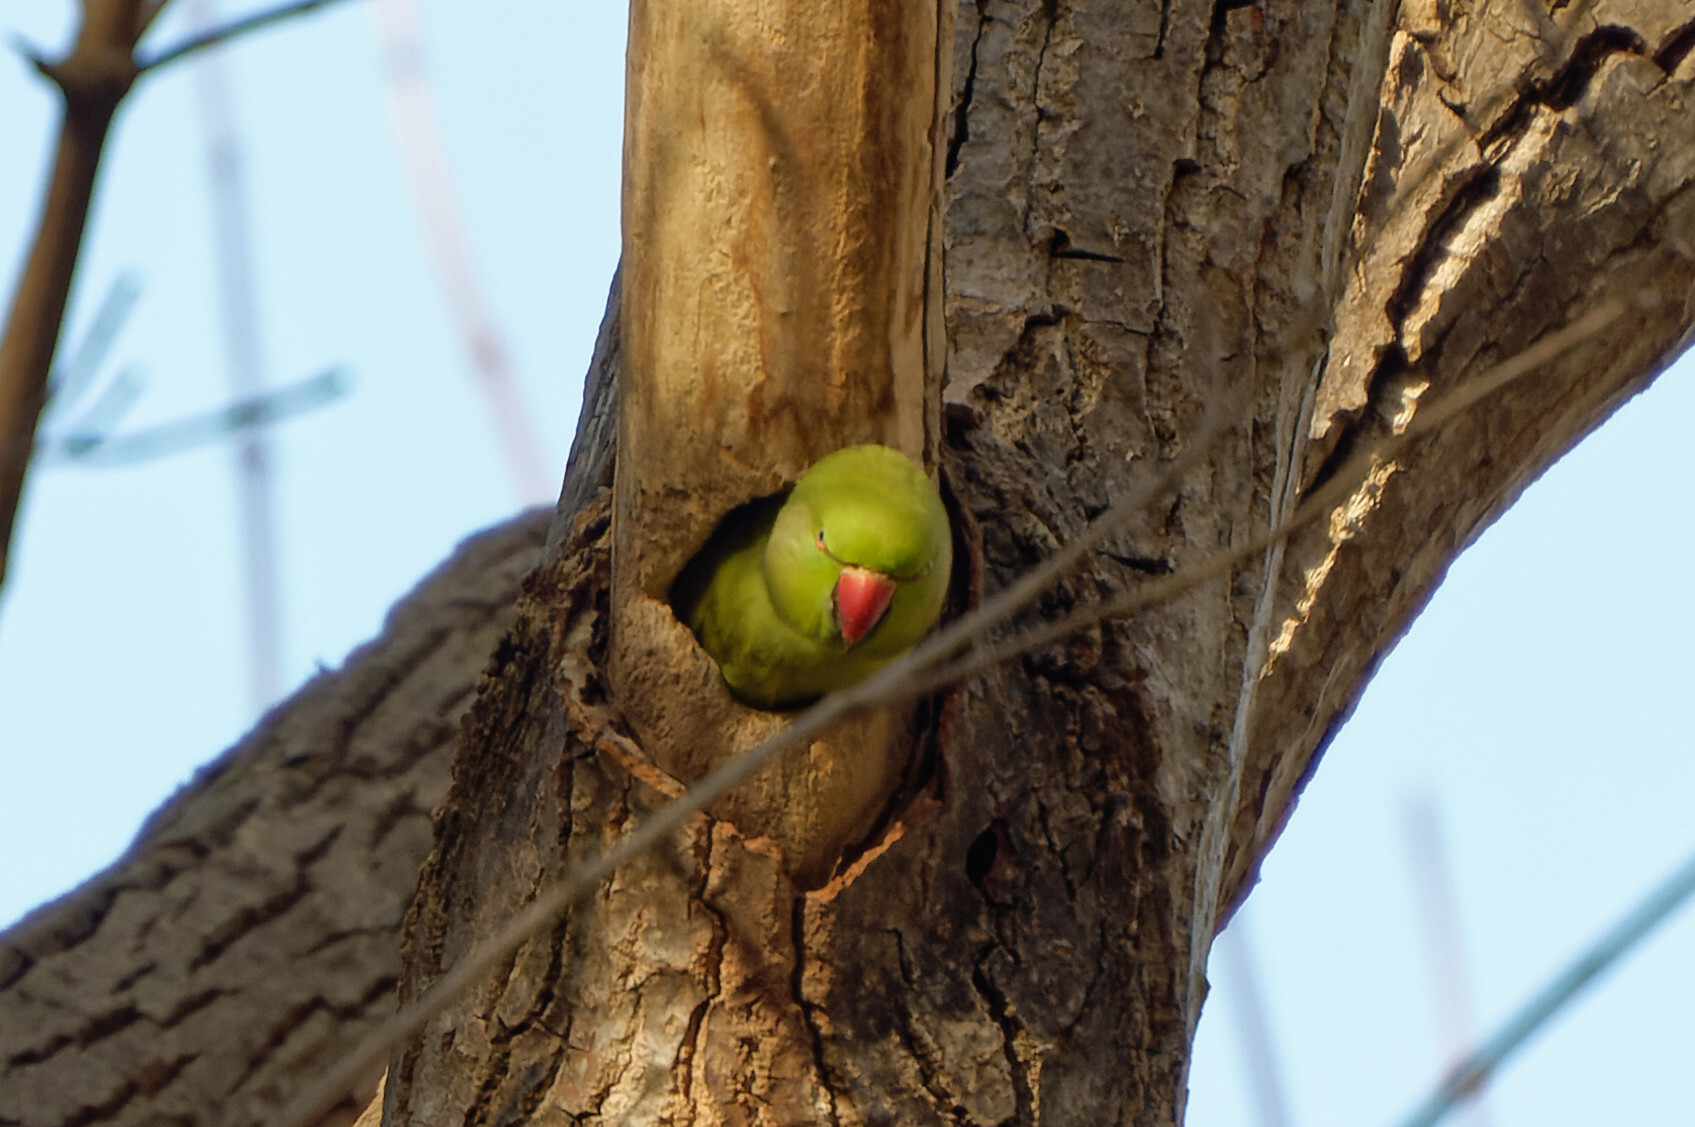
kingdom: Animalia
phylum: Chordata
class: Aves
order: Psittaciformes
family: Psittacidae
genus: Psittacula
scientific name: Psittacula krameri
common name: Rose-ringed parakeet
